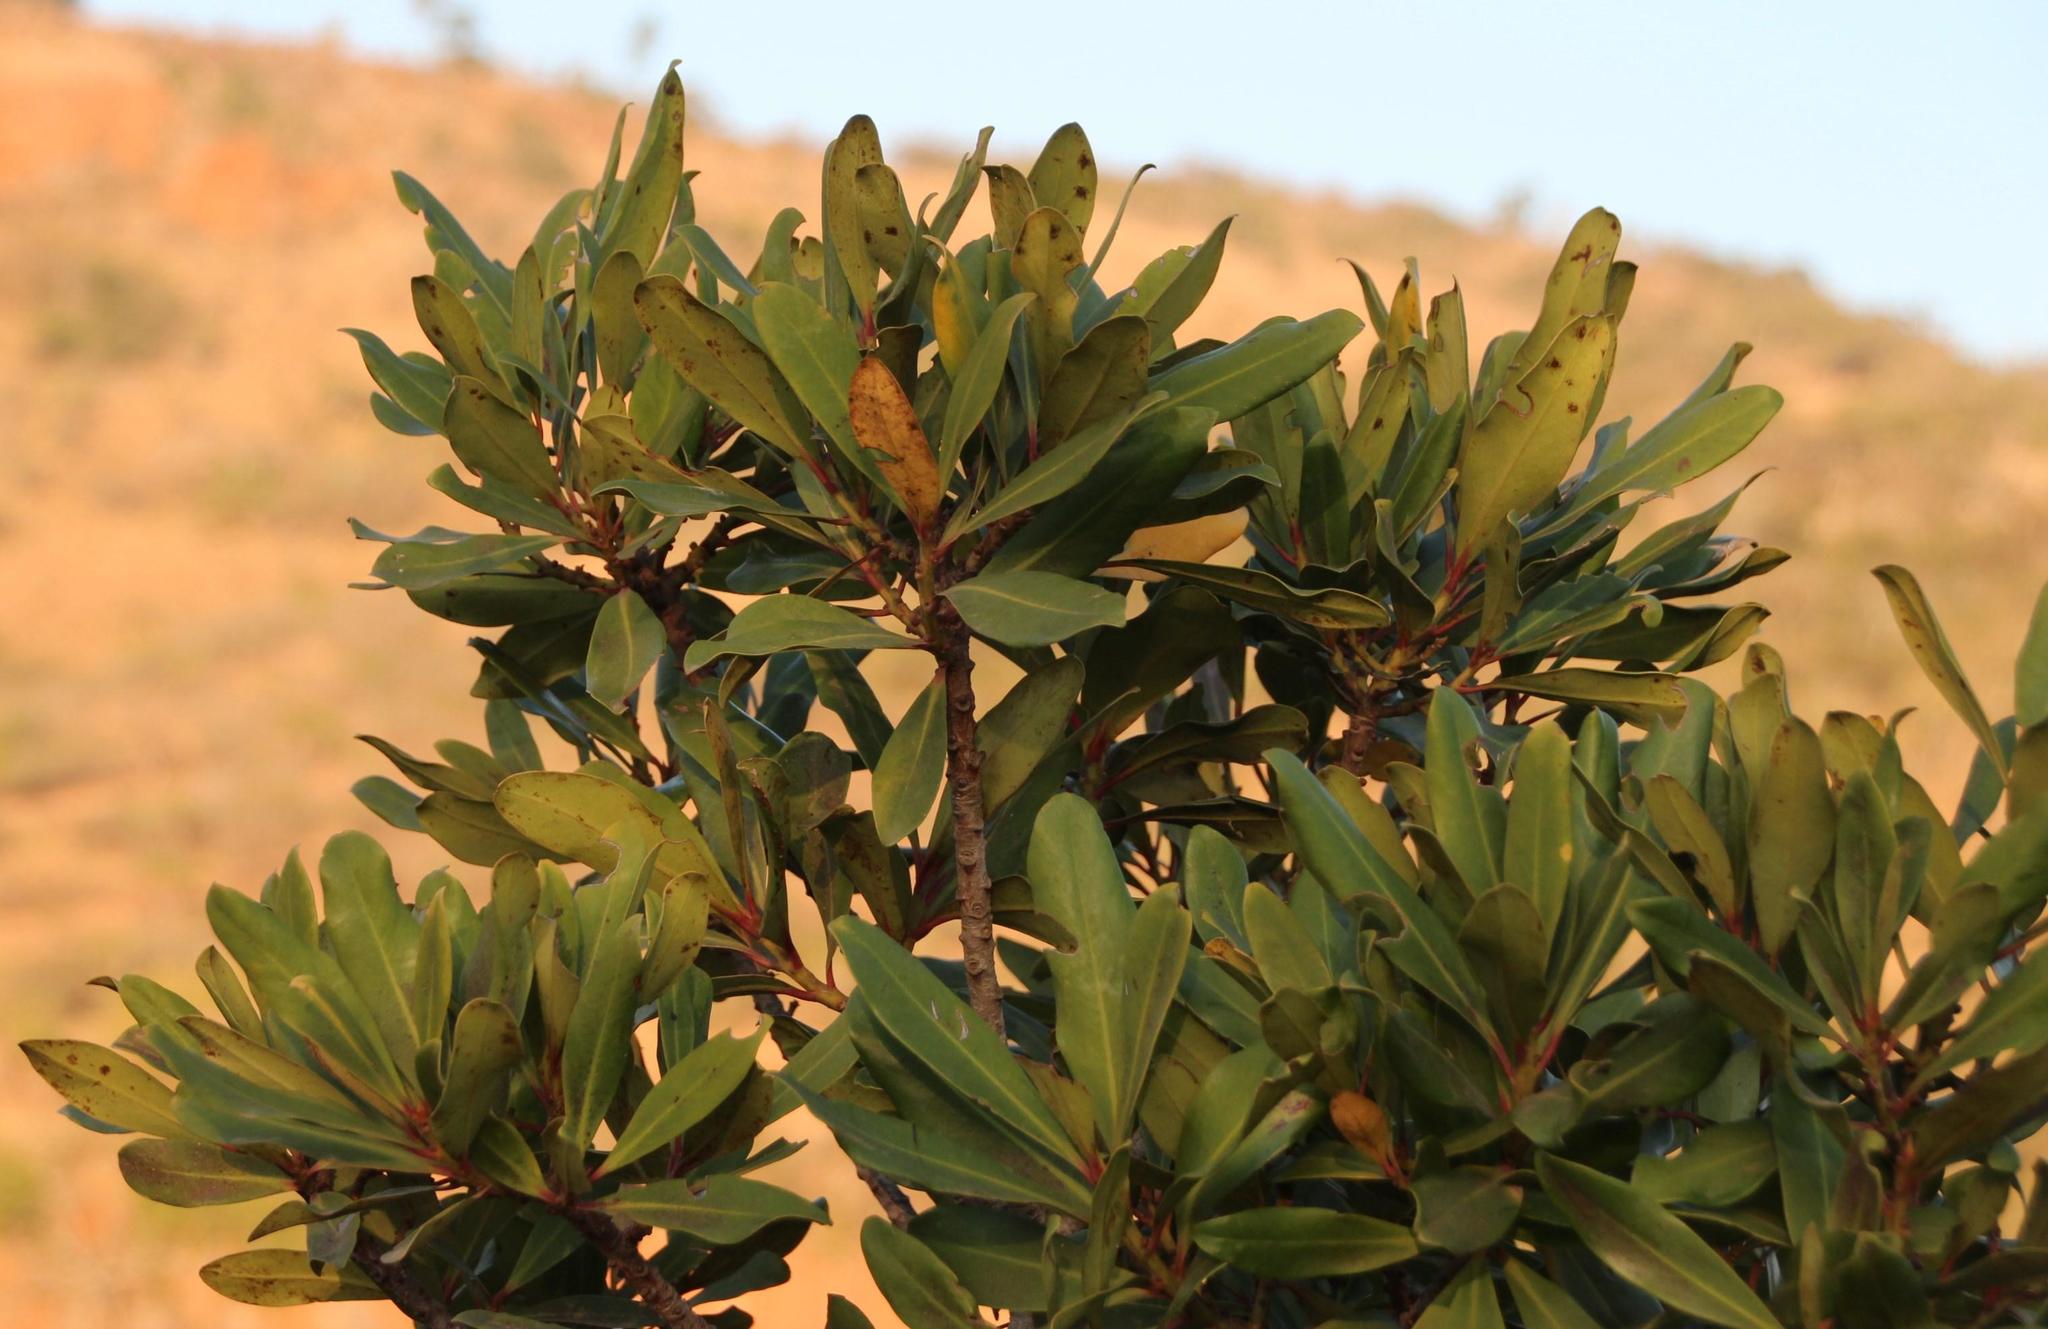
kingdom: Plantae
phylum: Tracheophyta
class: Magnoliopsida
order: Ericales
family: Primulaceae
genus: Myrsine
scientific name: Myrsine melanophloeos
